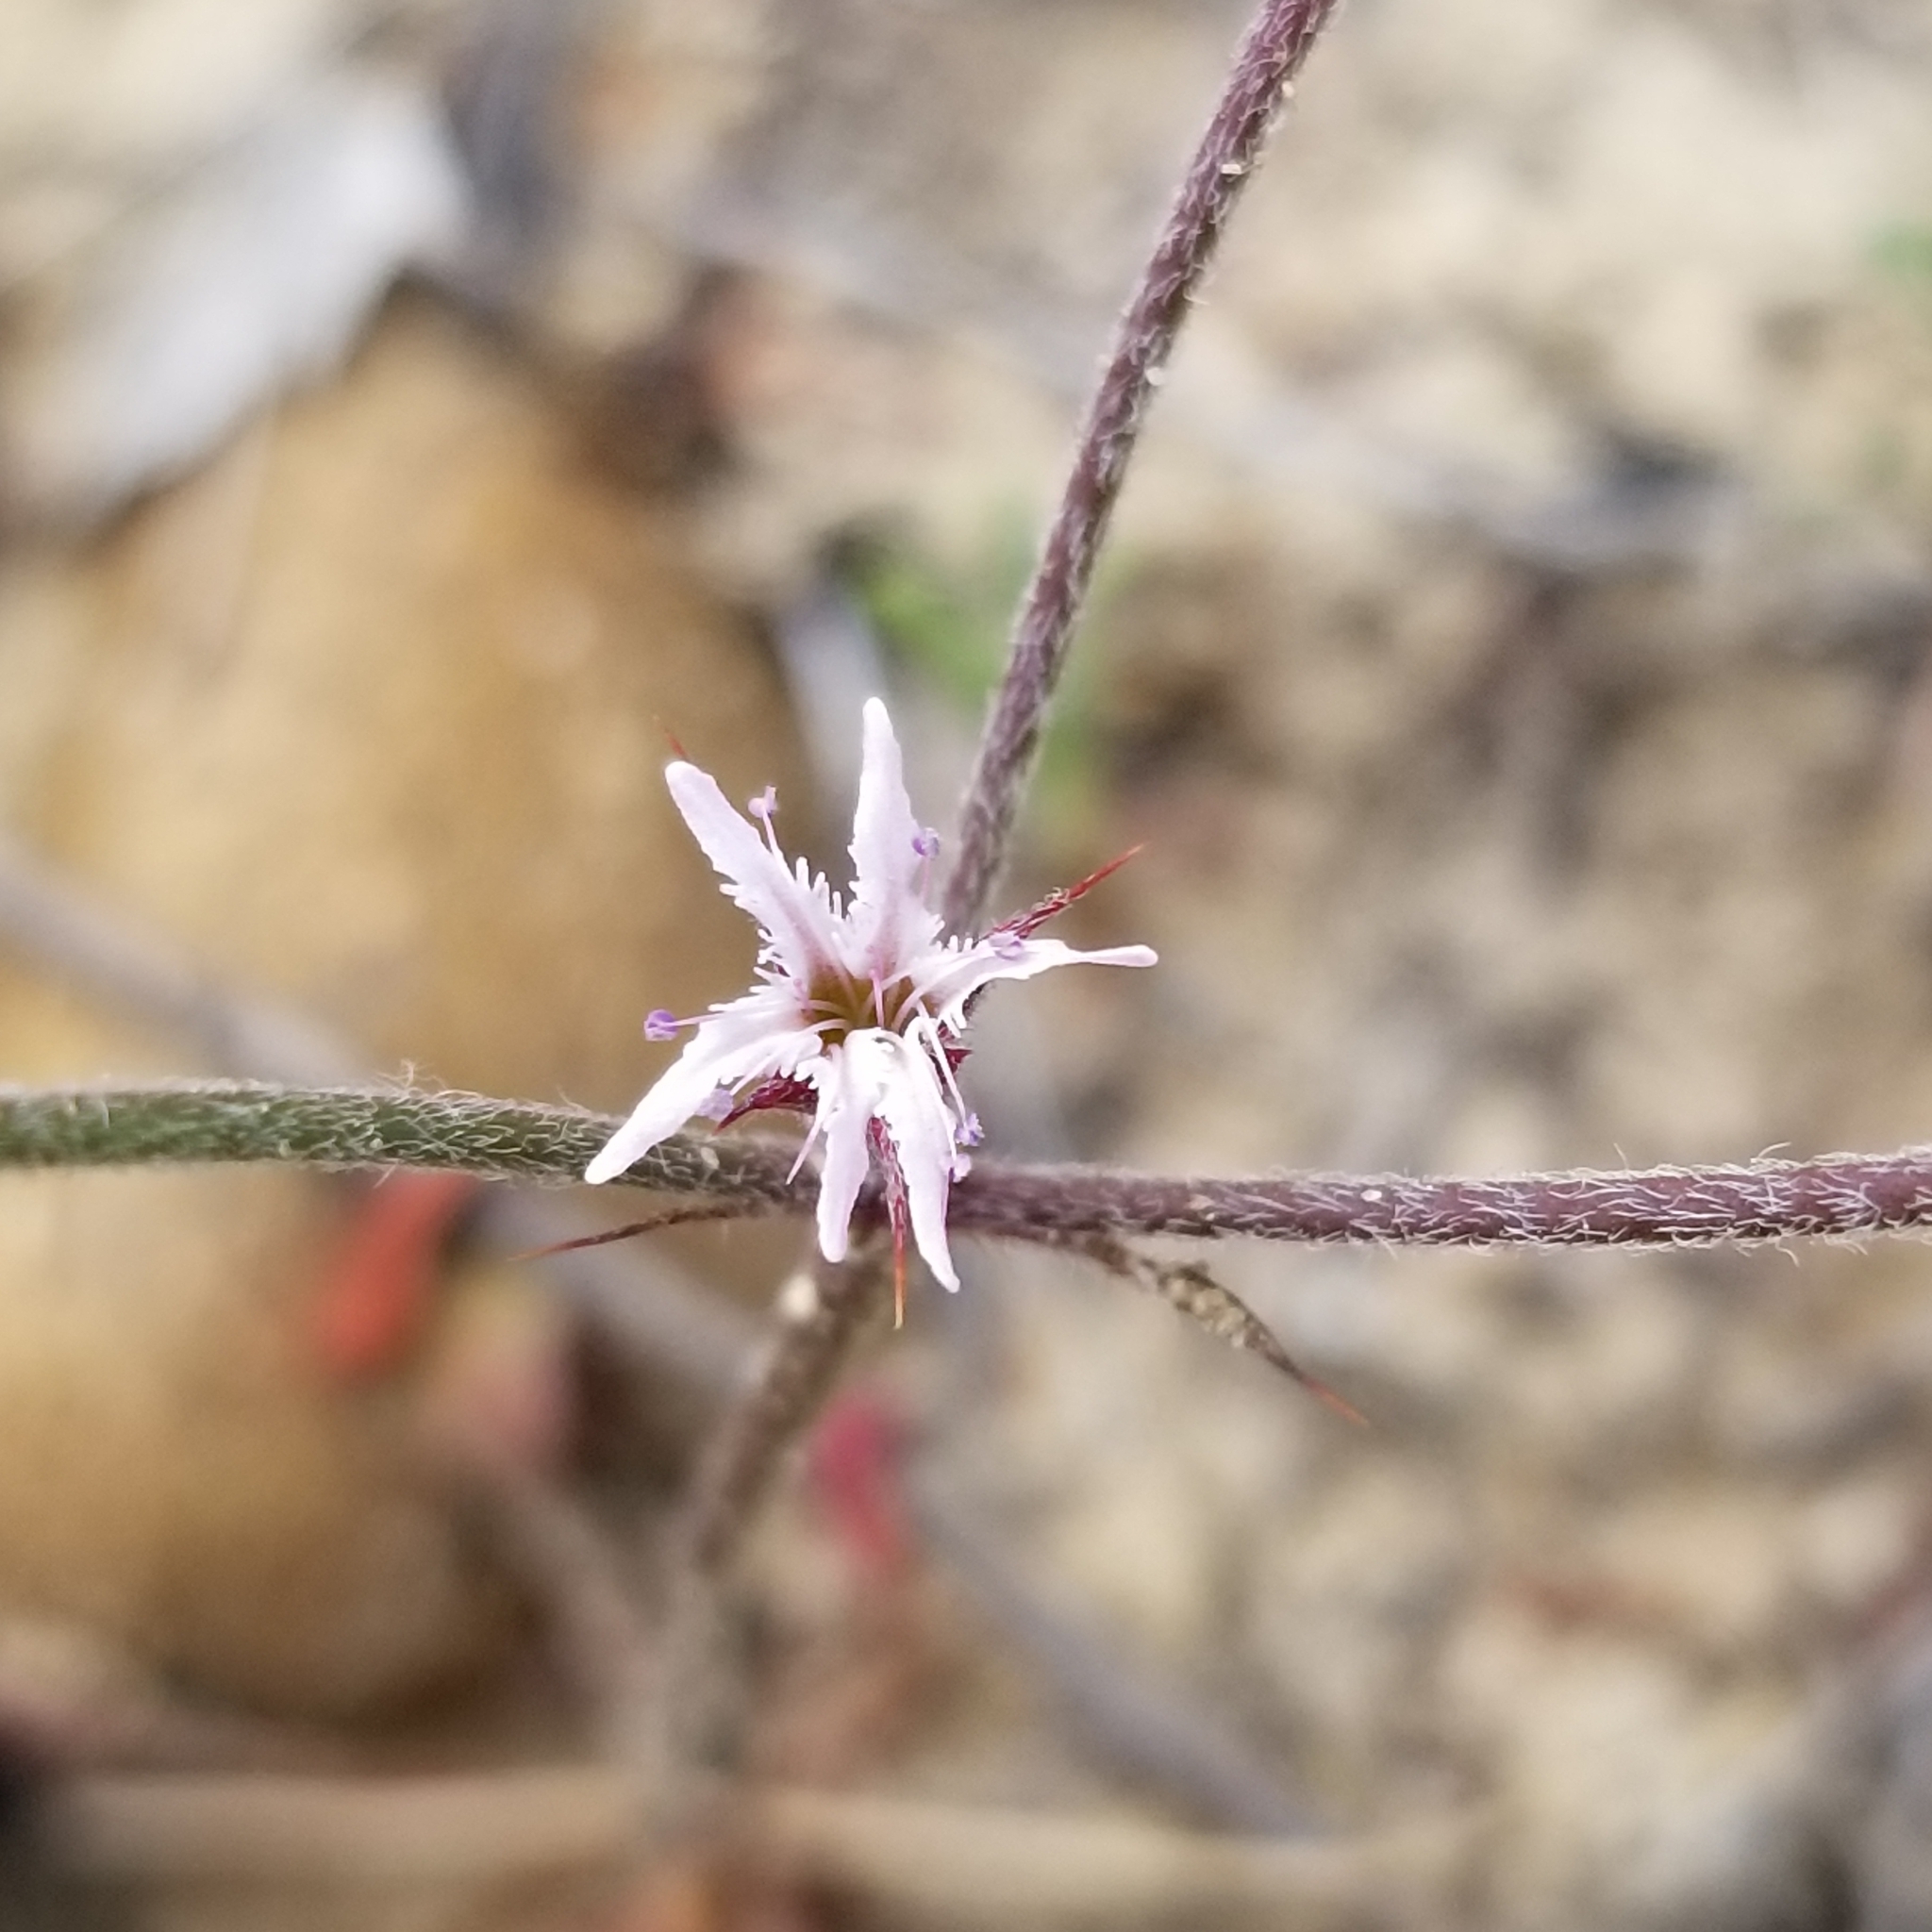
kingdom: Plantae
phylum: Tracheophyta
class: Magnoliopsida
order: Caryophyllales
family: Polygonaceae
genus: Chorizanthe
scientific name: Chorizanthe fimbriata
